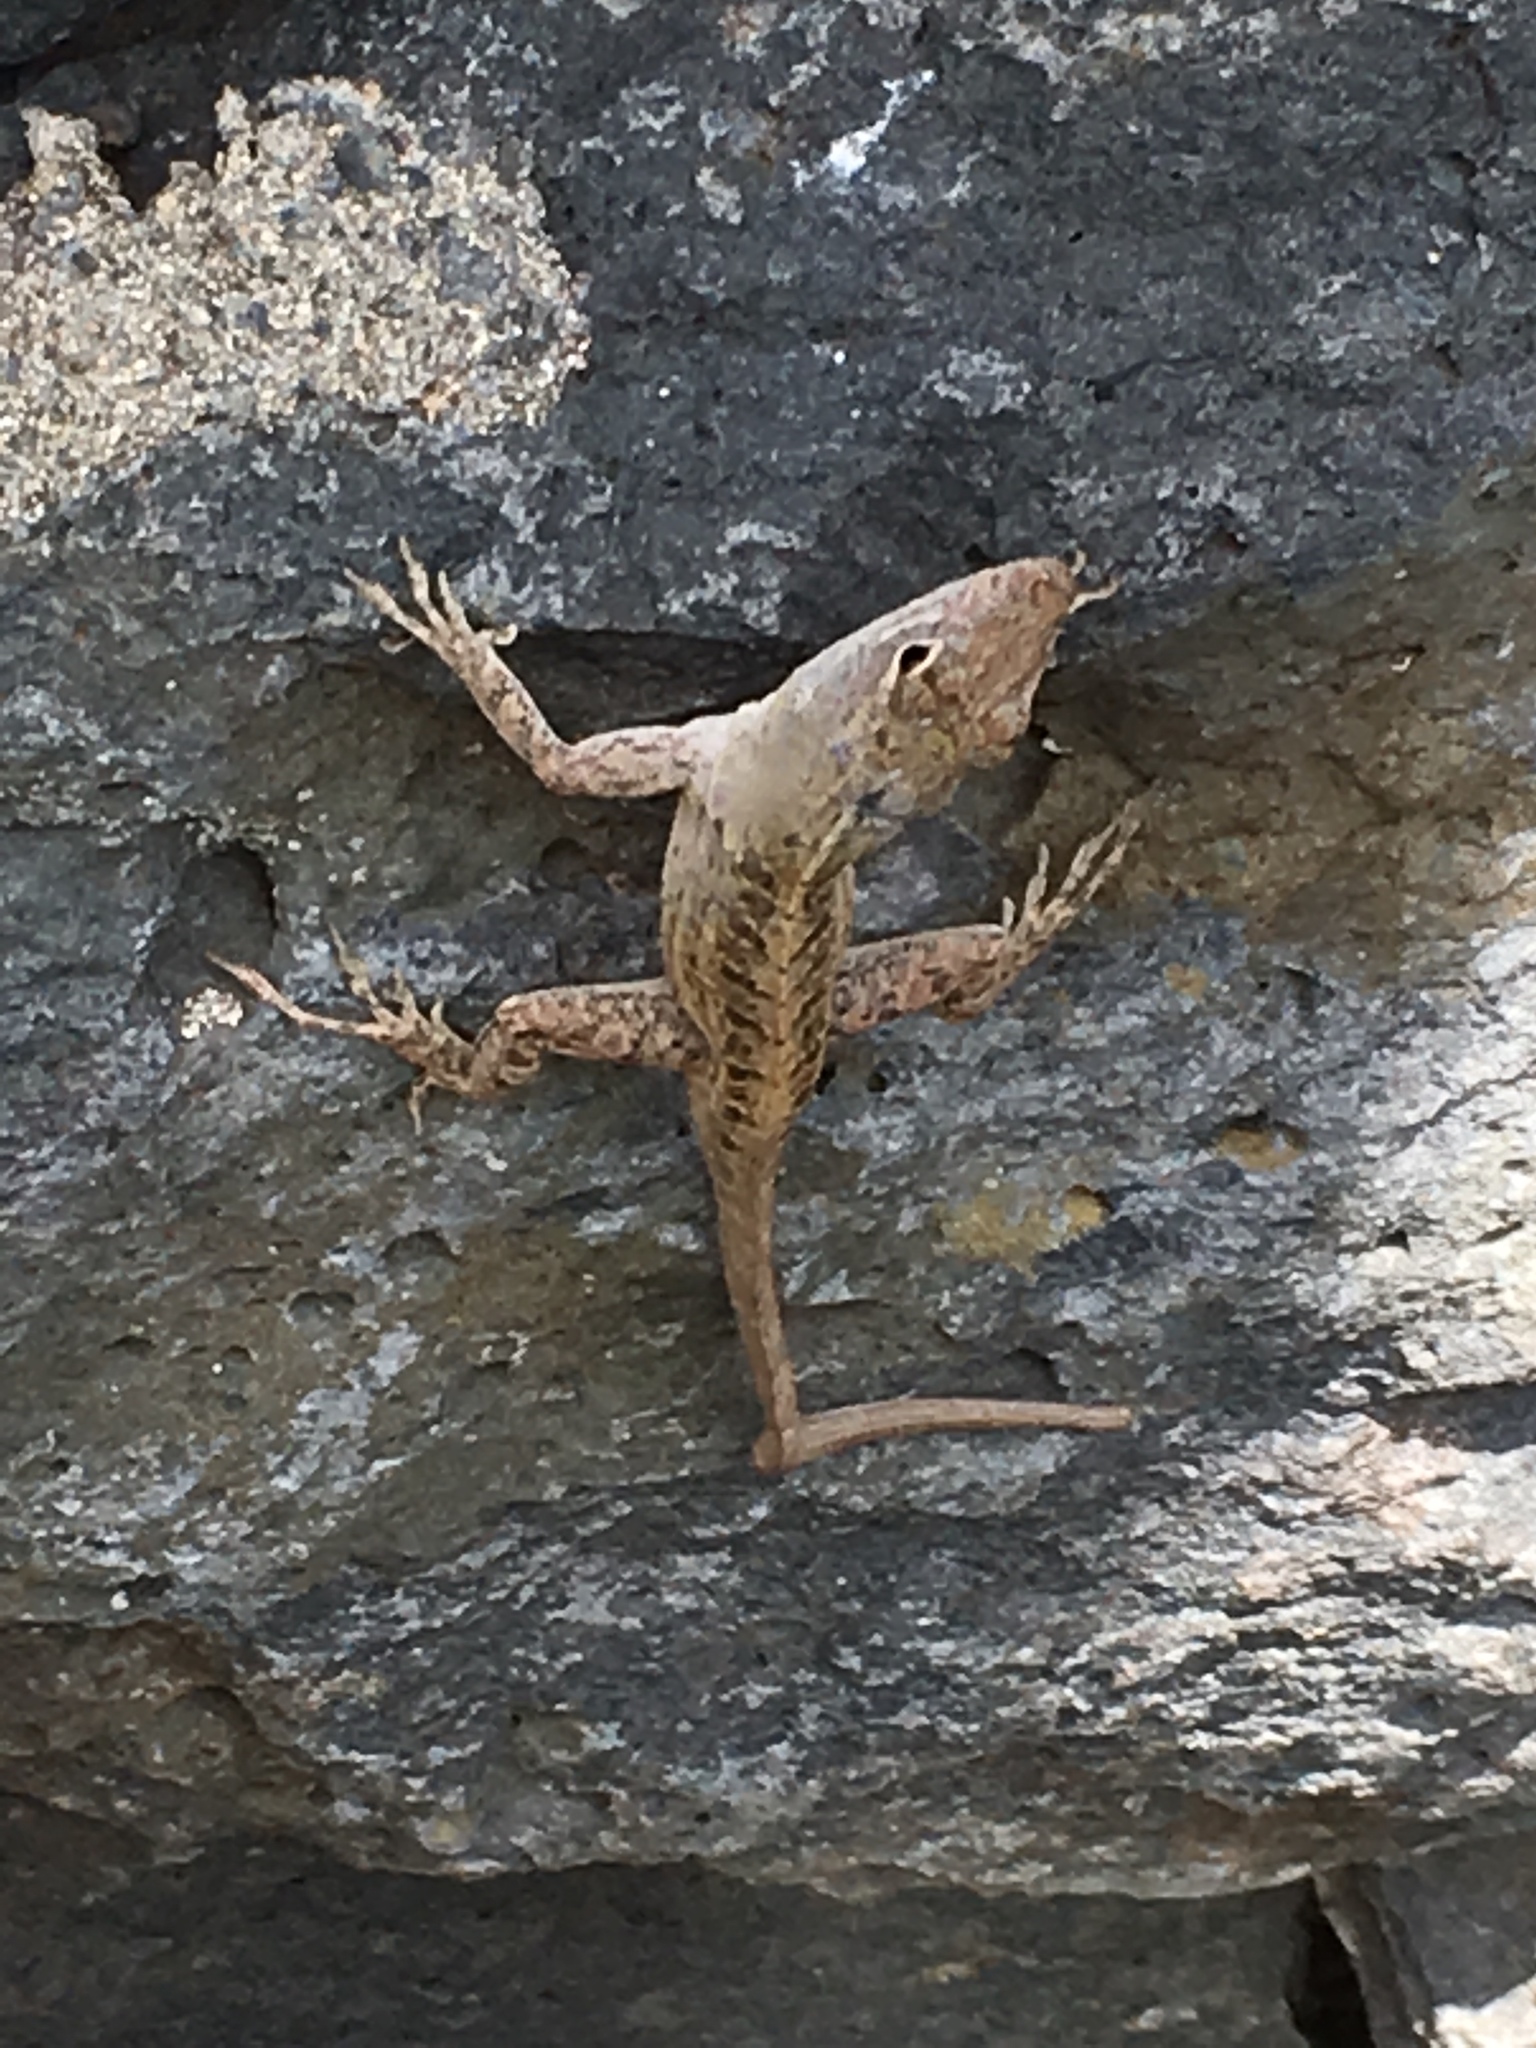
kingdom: Animalia
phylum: Chordata
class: Squamata
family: Dactyloidae
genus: Anolis
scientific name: Anolis sagrei
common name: Brown anole
